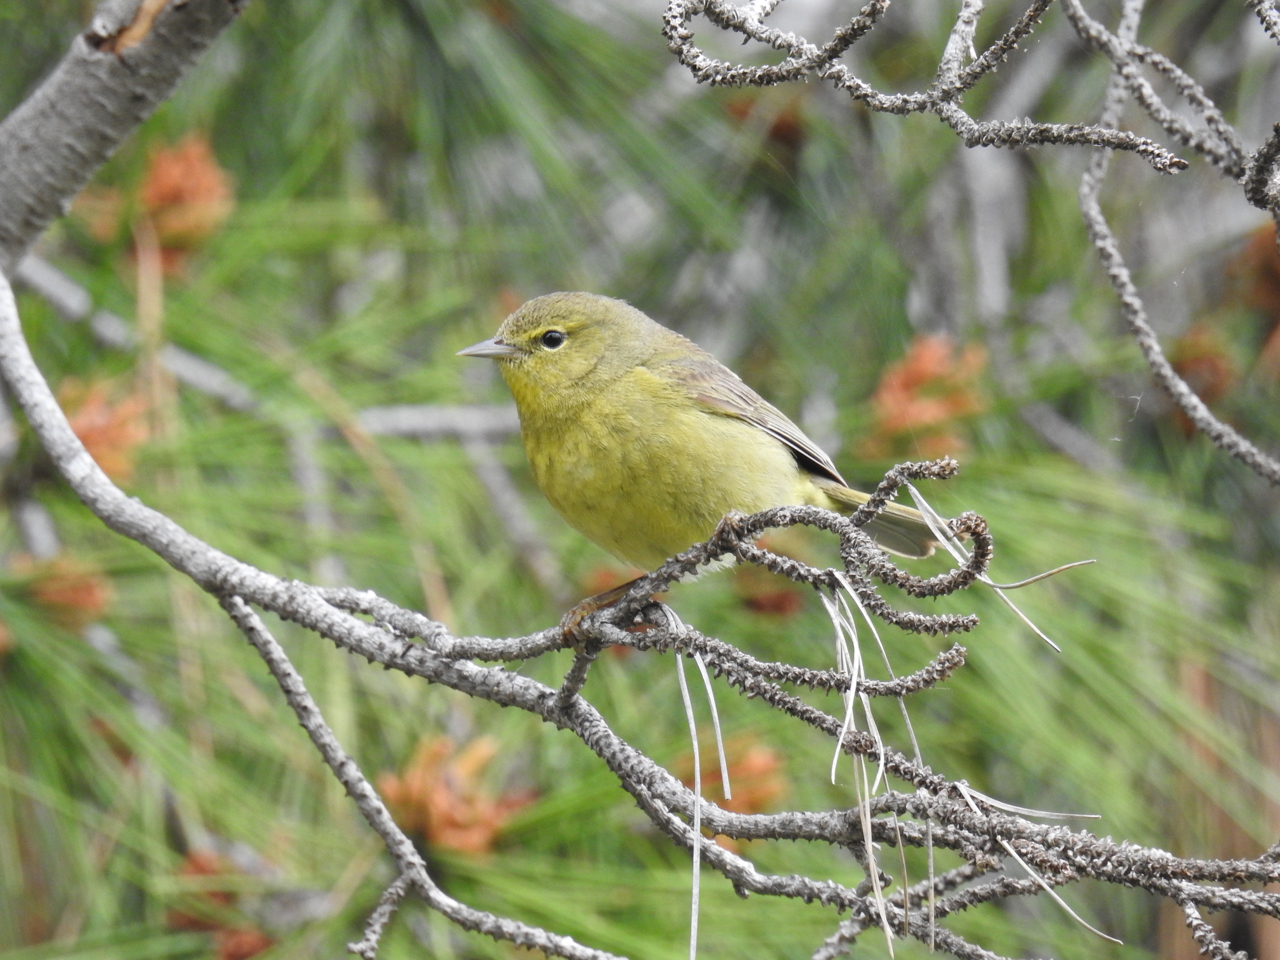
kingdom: Animalia
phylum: Chordata
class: Aves
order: Passeriformes
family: Parulidae
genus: Leiothlypis
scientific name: Leiothlypis celata
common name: Orange-crowned warbler
